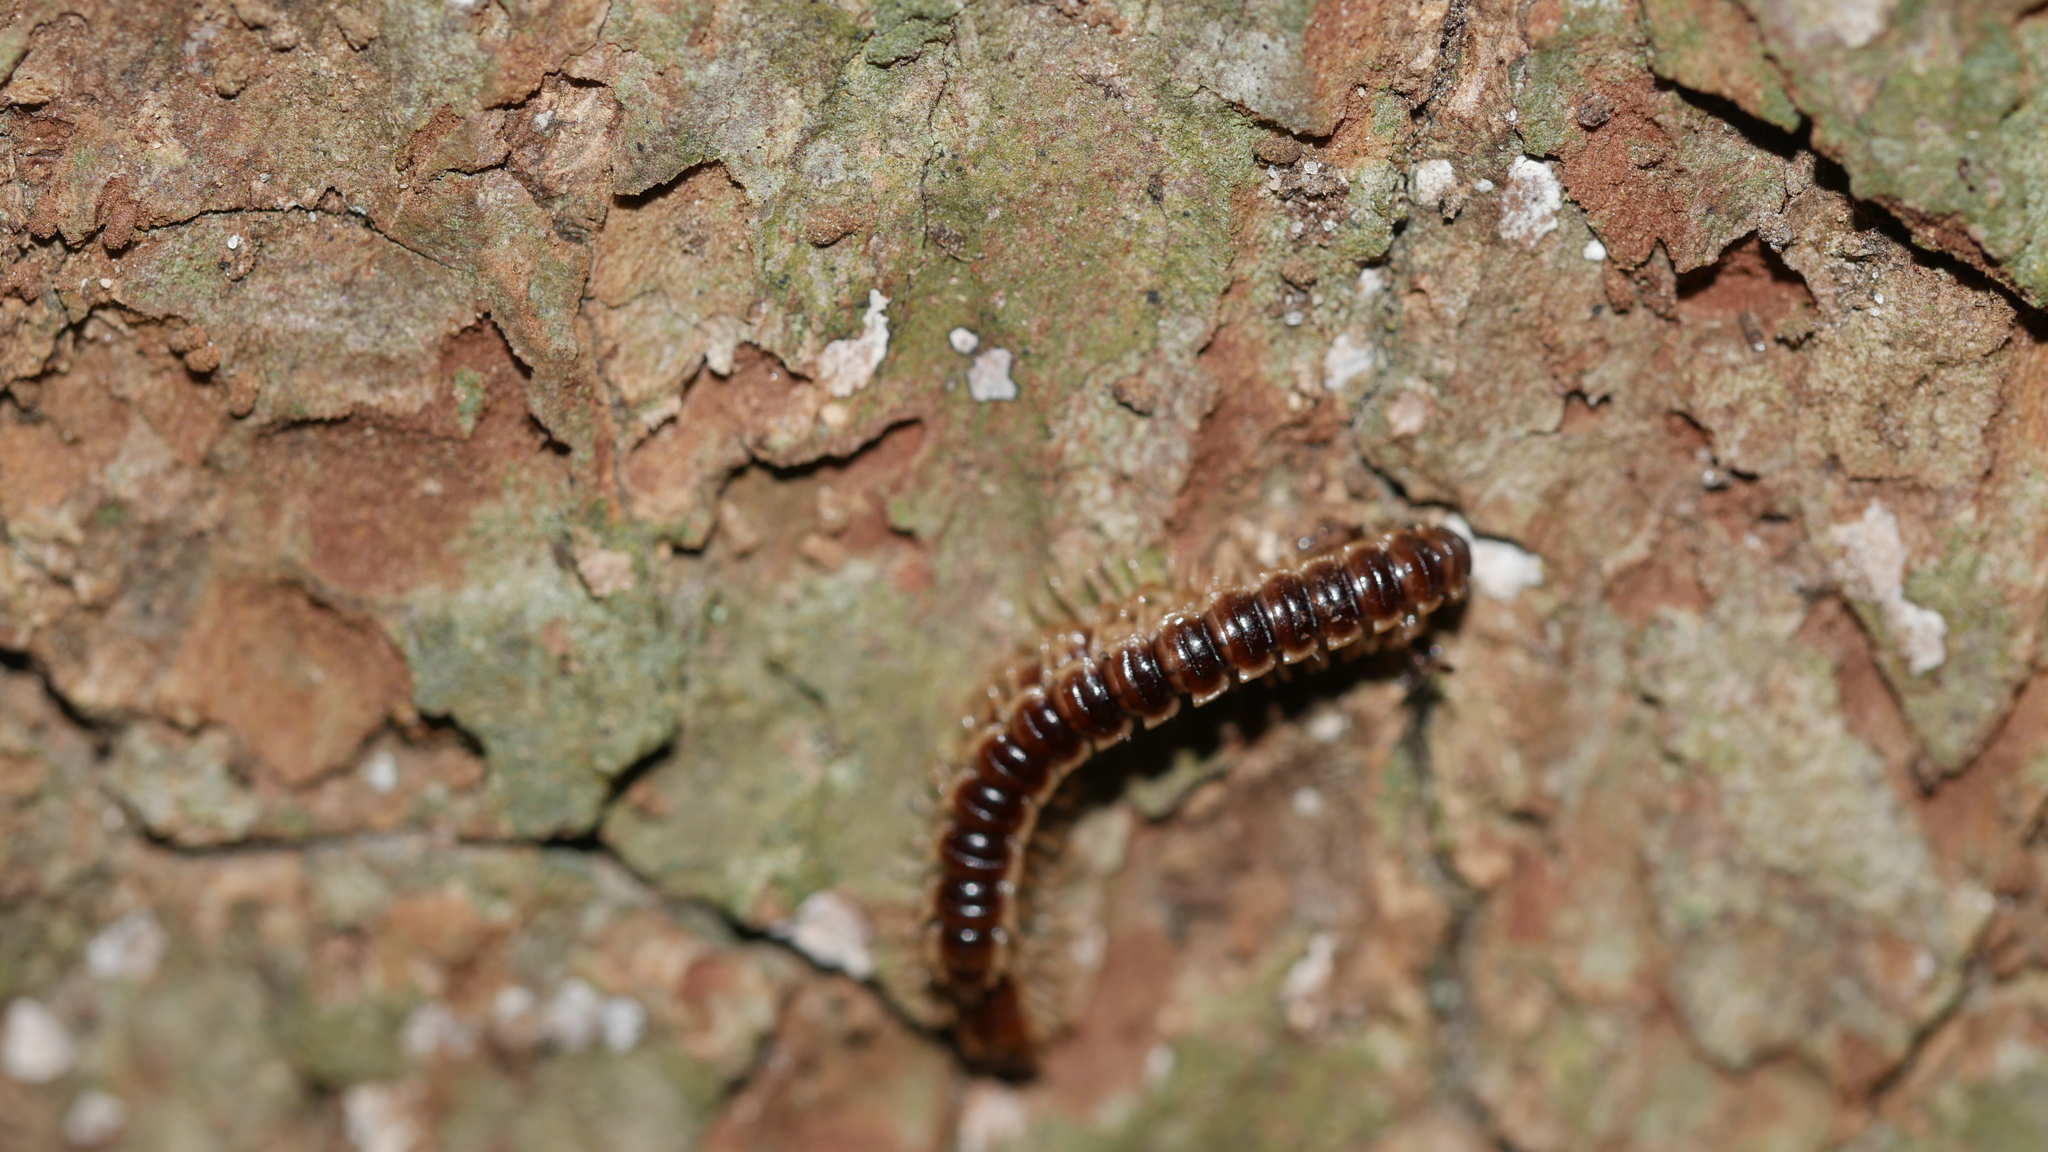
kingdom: Animalia
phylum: Arthropoda
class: Diplopoda
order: Polydesmida
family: Paradoxosomatidae
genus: Oxidus
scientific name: Oxidus gracilis
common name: Greenhouse millipede
